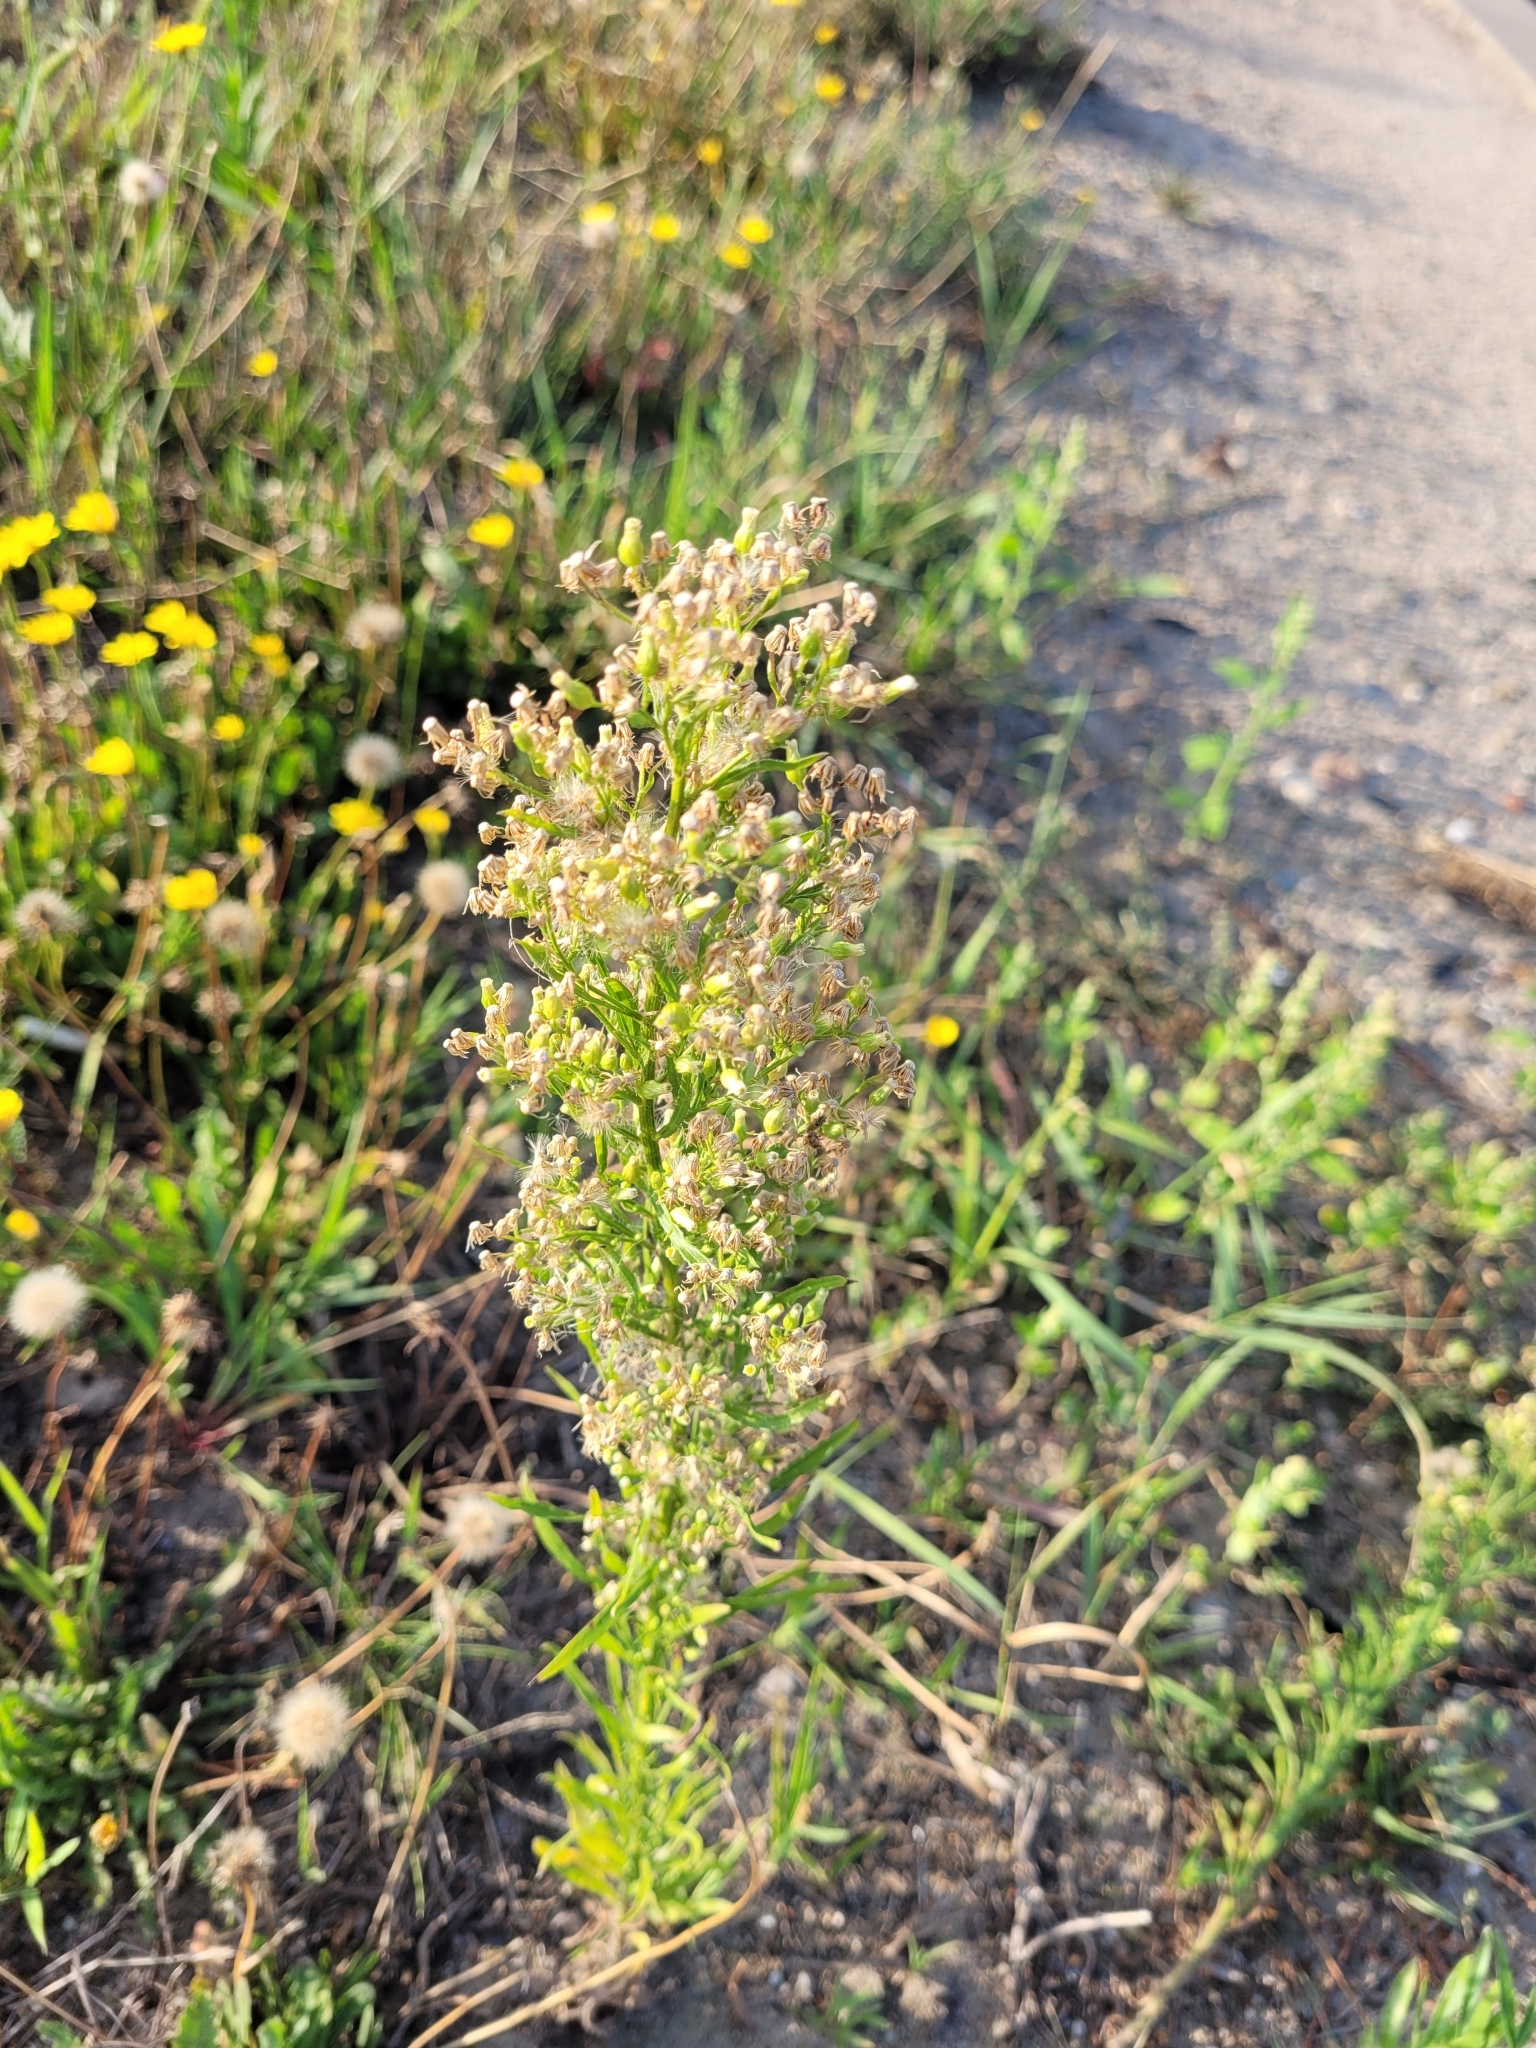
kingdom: Plantae
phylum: Tracheophyta
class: Magnoliopsida
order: Asterales
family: Asteraceae
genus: Erigeron
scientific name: Erigeron canadensis
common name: Canadian fleabane
